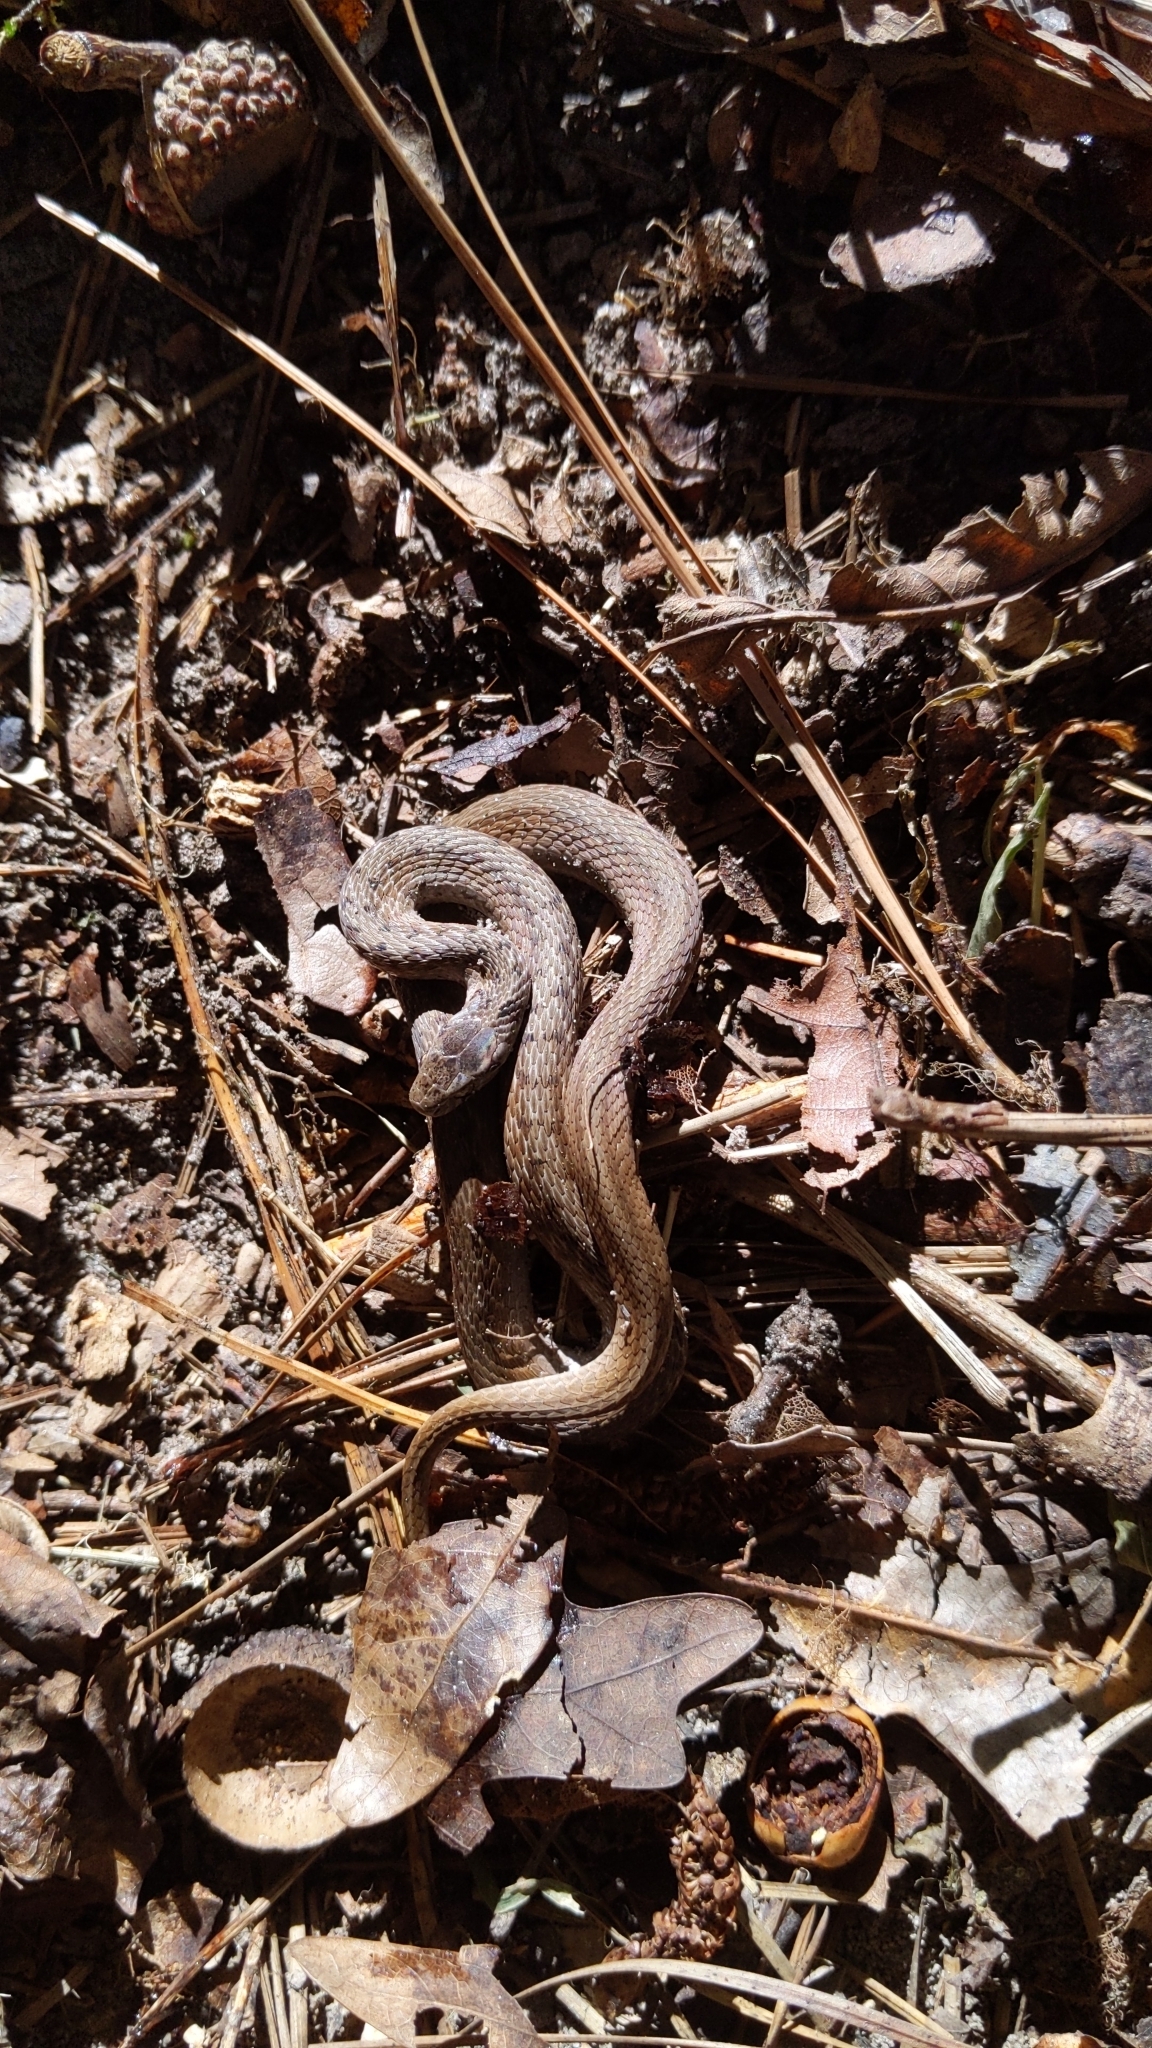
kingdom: Animalia
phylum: Chordata
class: Squamata
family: Colubridae
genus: Storeria
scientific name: Storeria dekayi
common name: (dekay’s) brown snake
